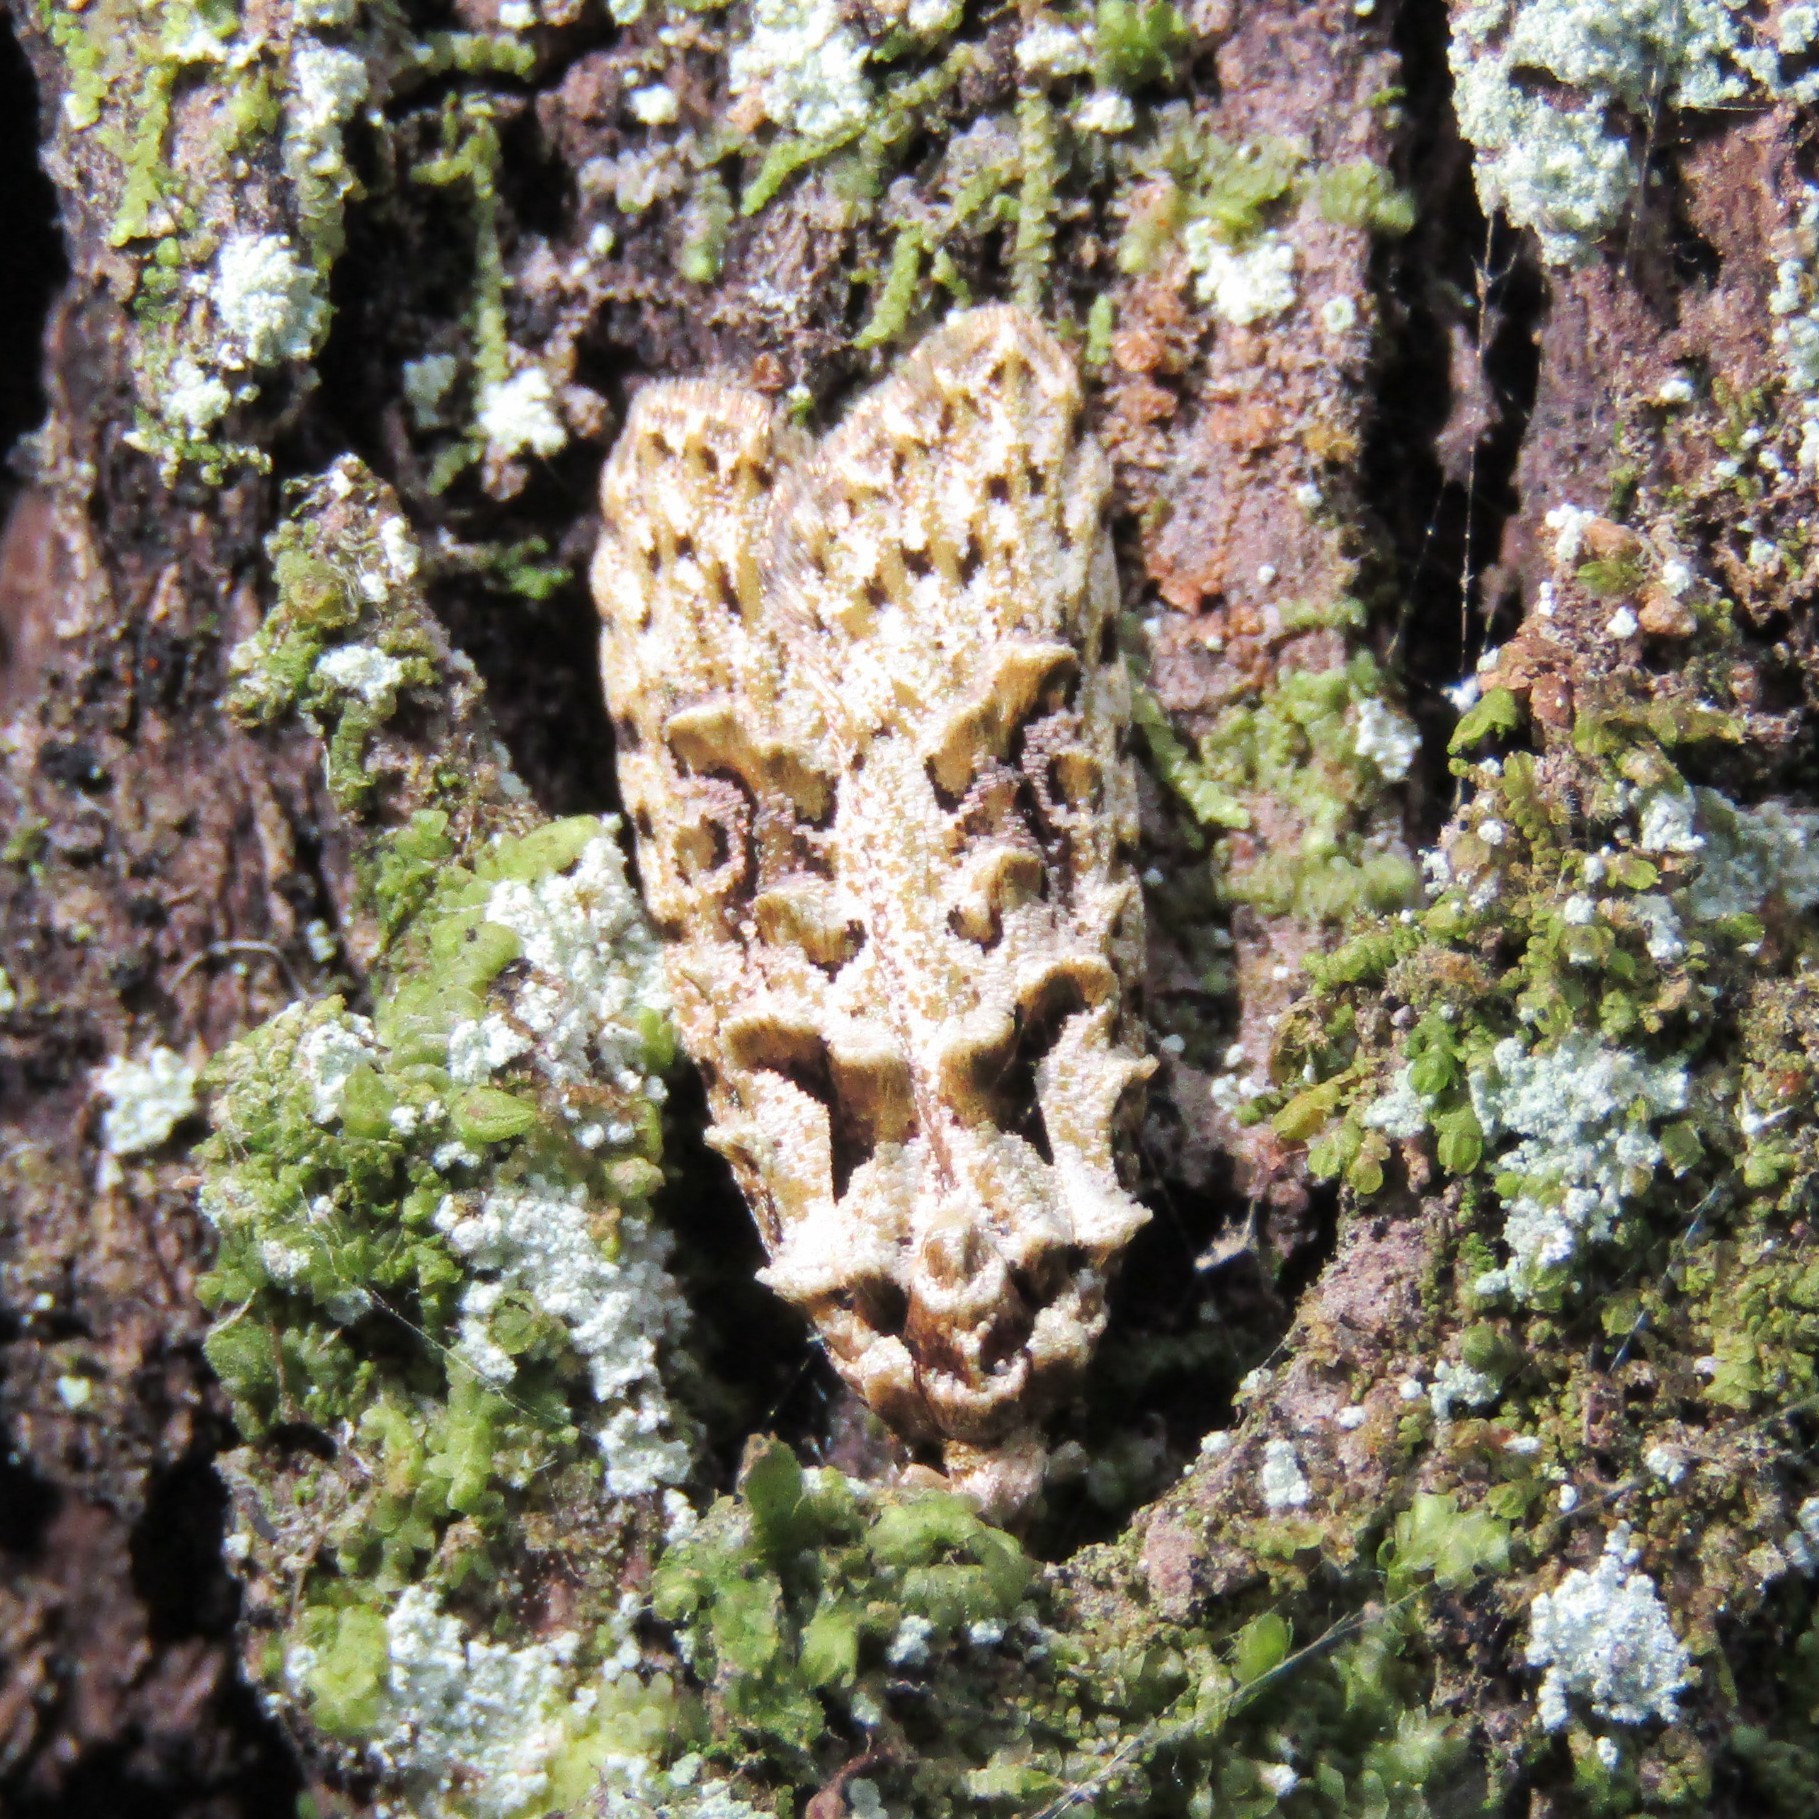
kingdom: Animalia
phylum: Arthropoda
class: Insecta
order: Lepidoptera
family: Carposinidae
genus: Carposina
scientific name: Carposina Heterocrossa eriphylla
